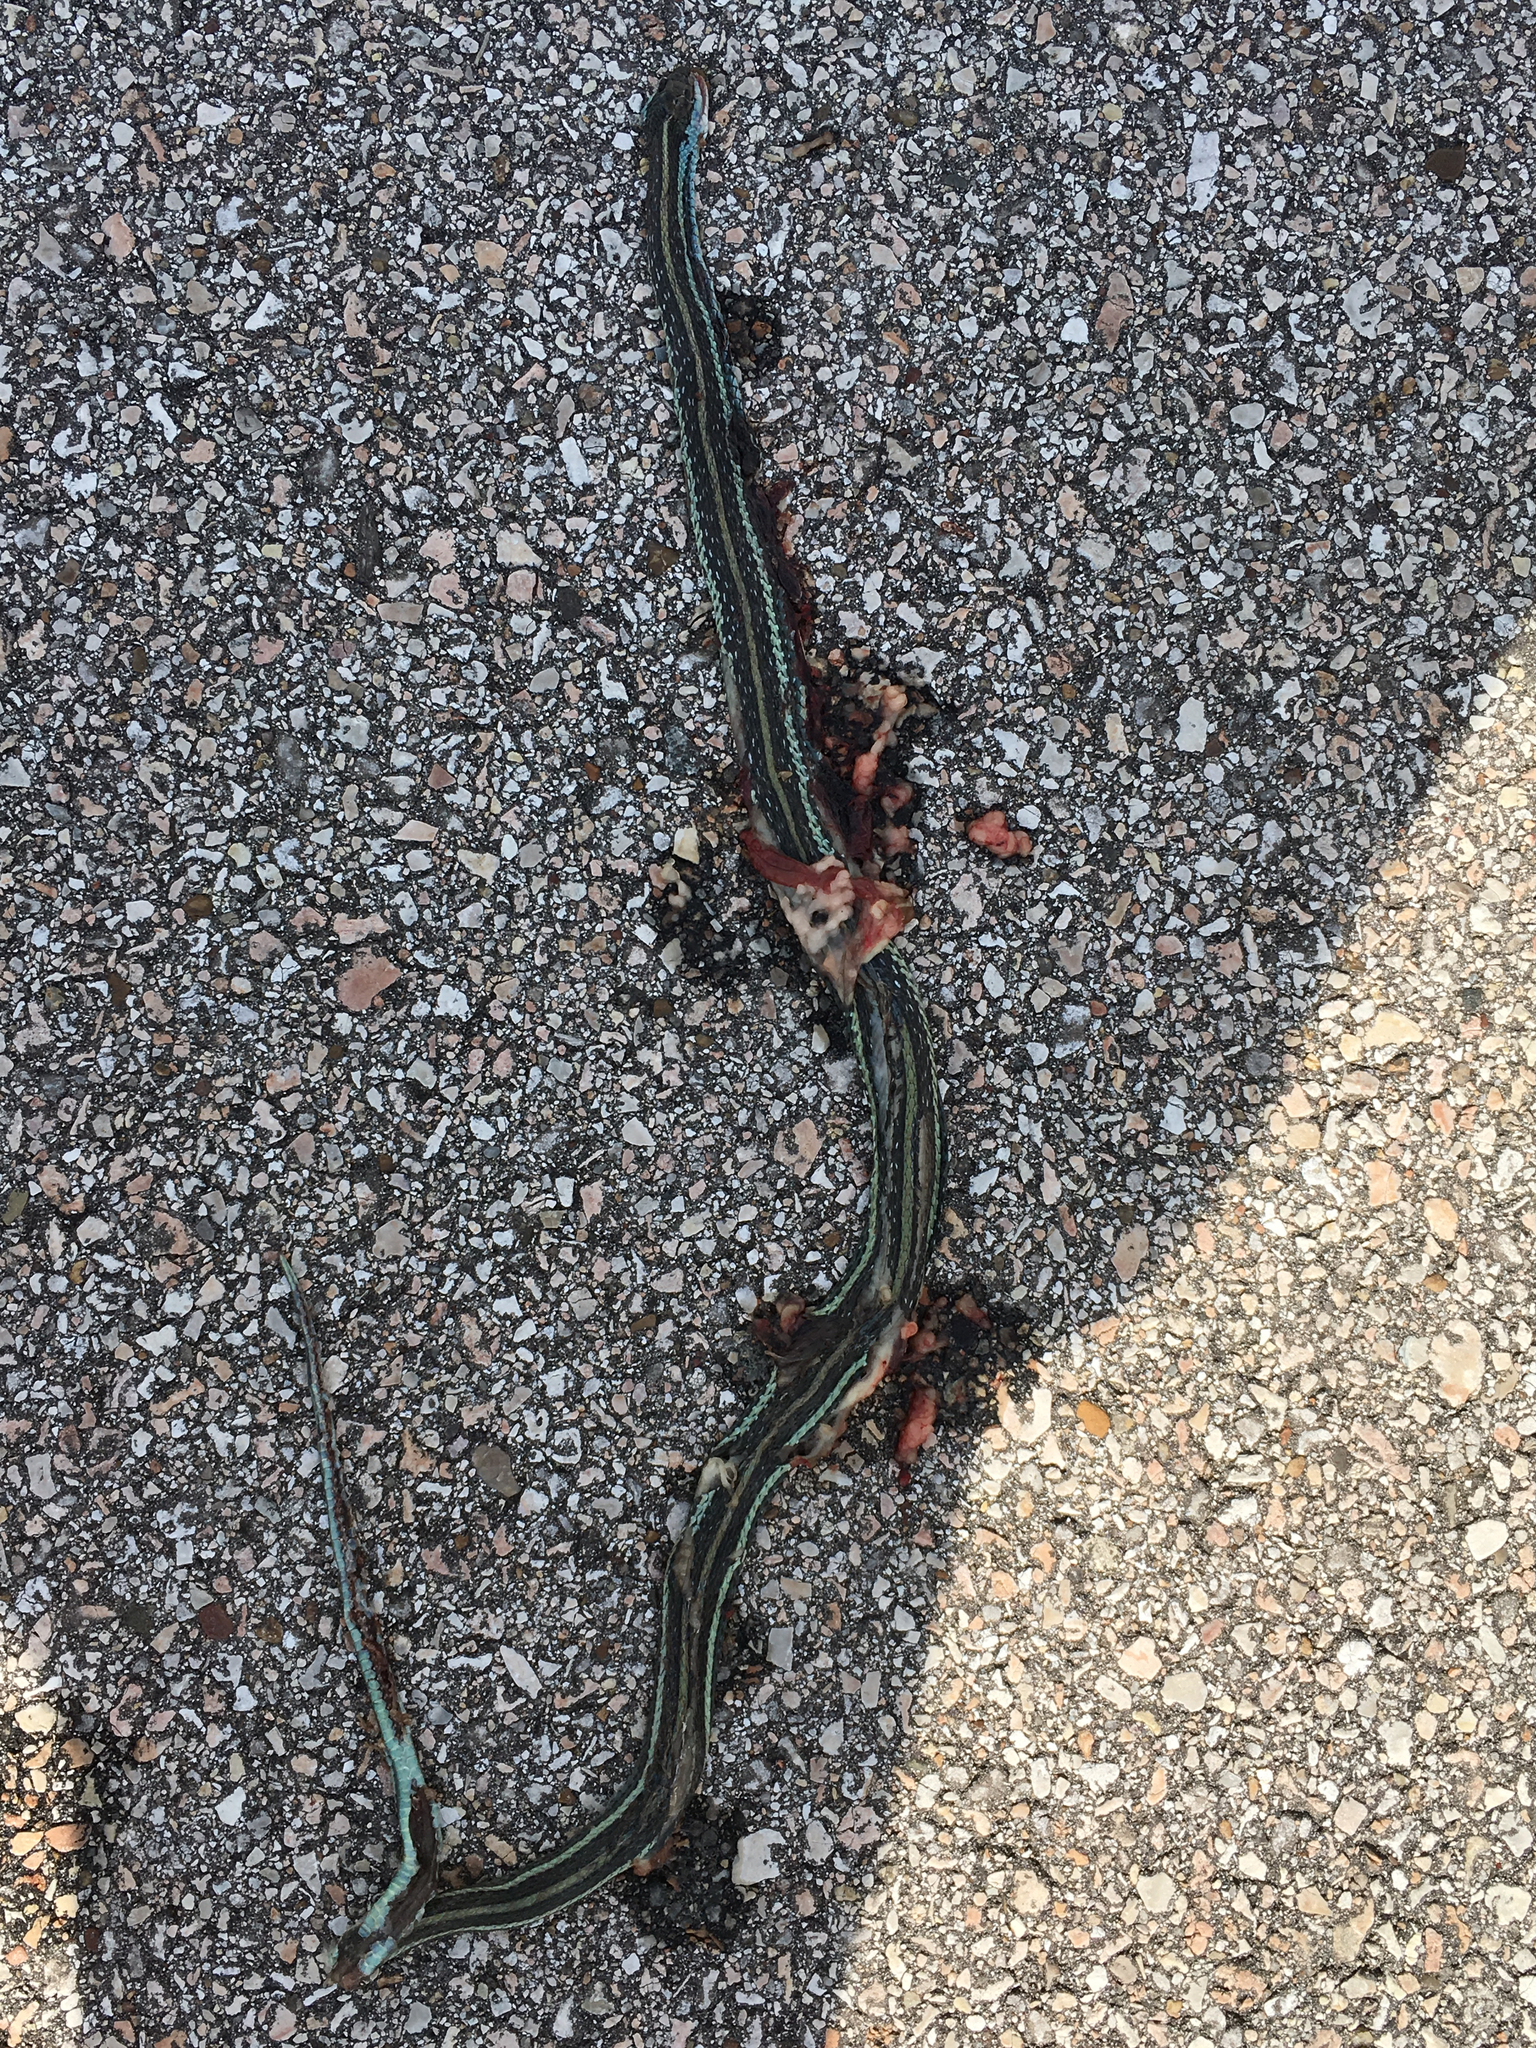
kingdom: Animalia
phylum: Chordata
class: Squamata
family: Colubridae
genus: Thamnophis
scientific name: Thamnophis proximus
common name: Western ribbon snake
